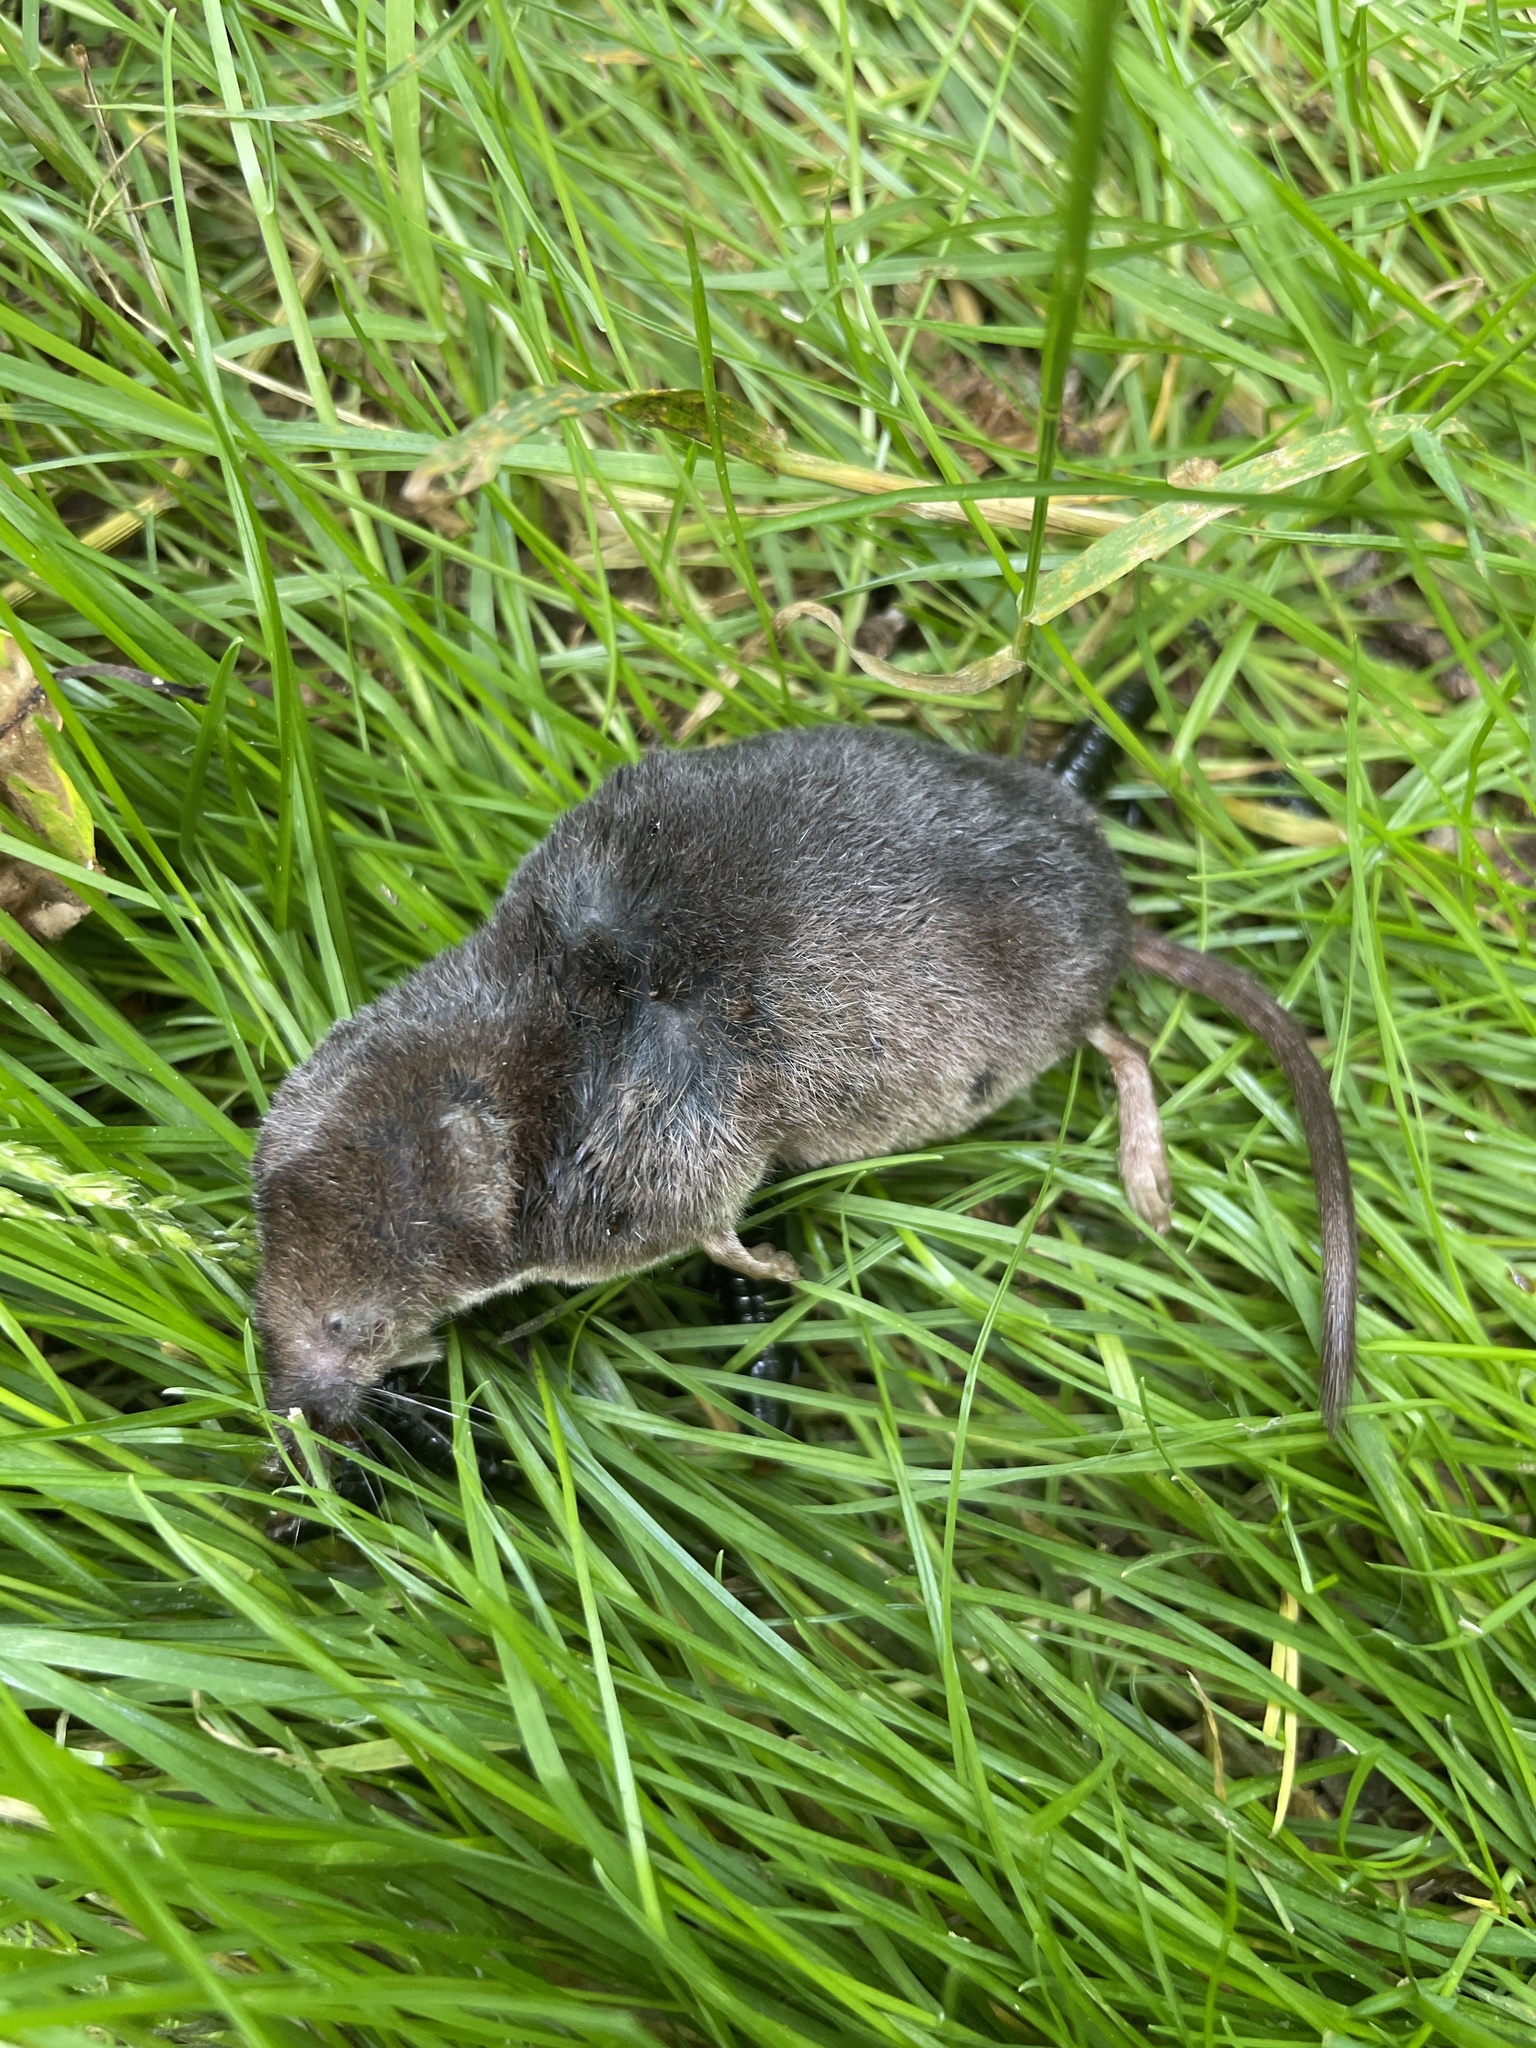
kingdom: Animalia
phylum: Chordata
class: Mammalia
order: Soricomorpha
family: Soricidae
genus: Sorex
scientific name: Sorex araneus
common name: Common shrew
